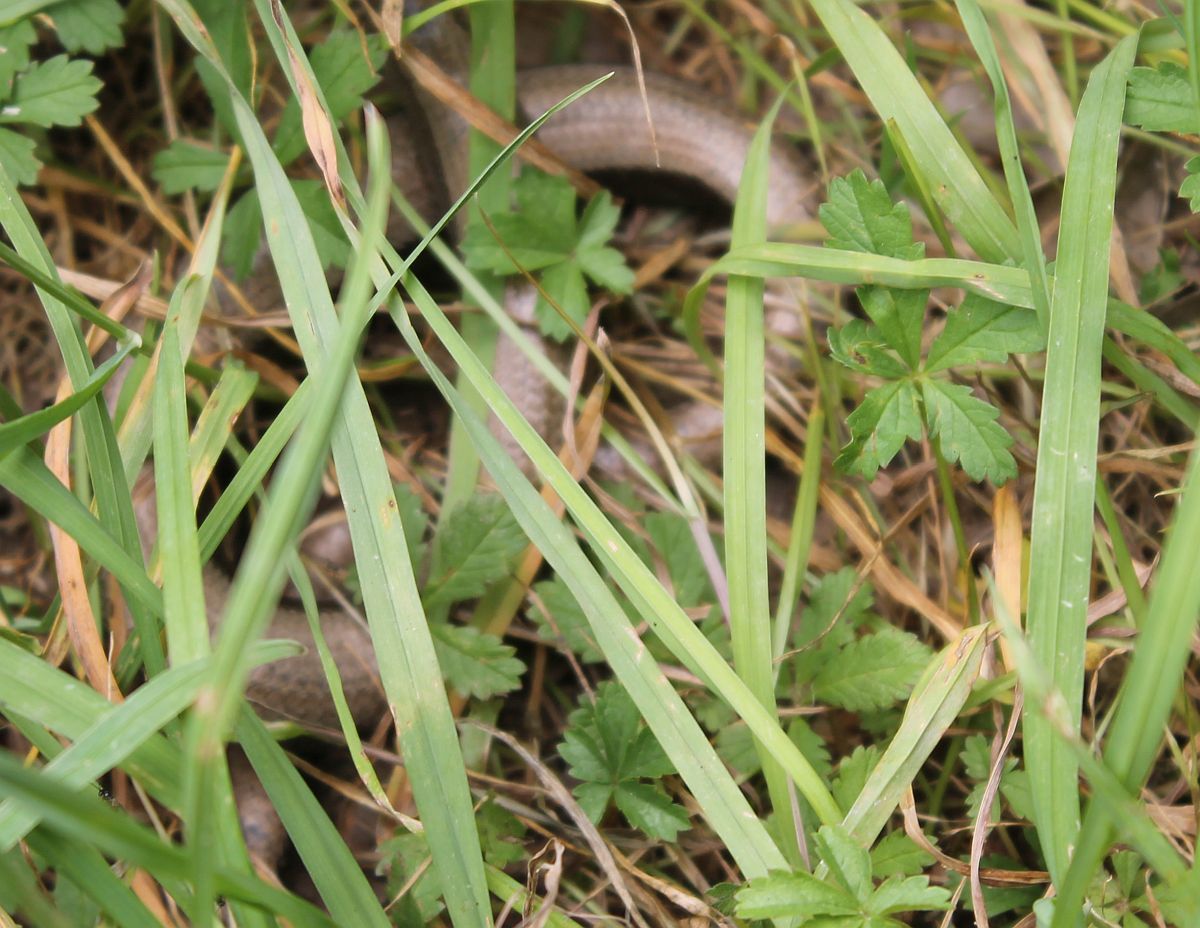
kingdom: Animalia
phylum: Chordata
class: Squamata
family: Anguidae
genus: Anguis
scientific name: Anguis fragilis
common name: Slow worm
